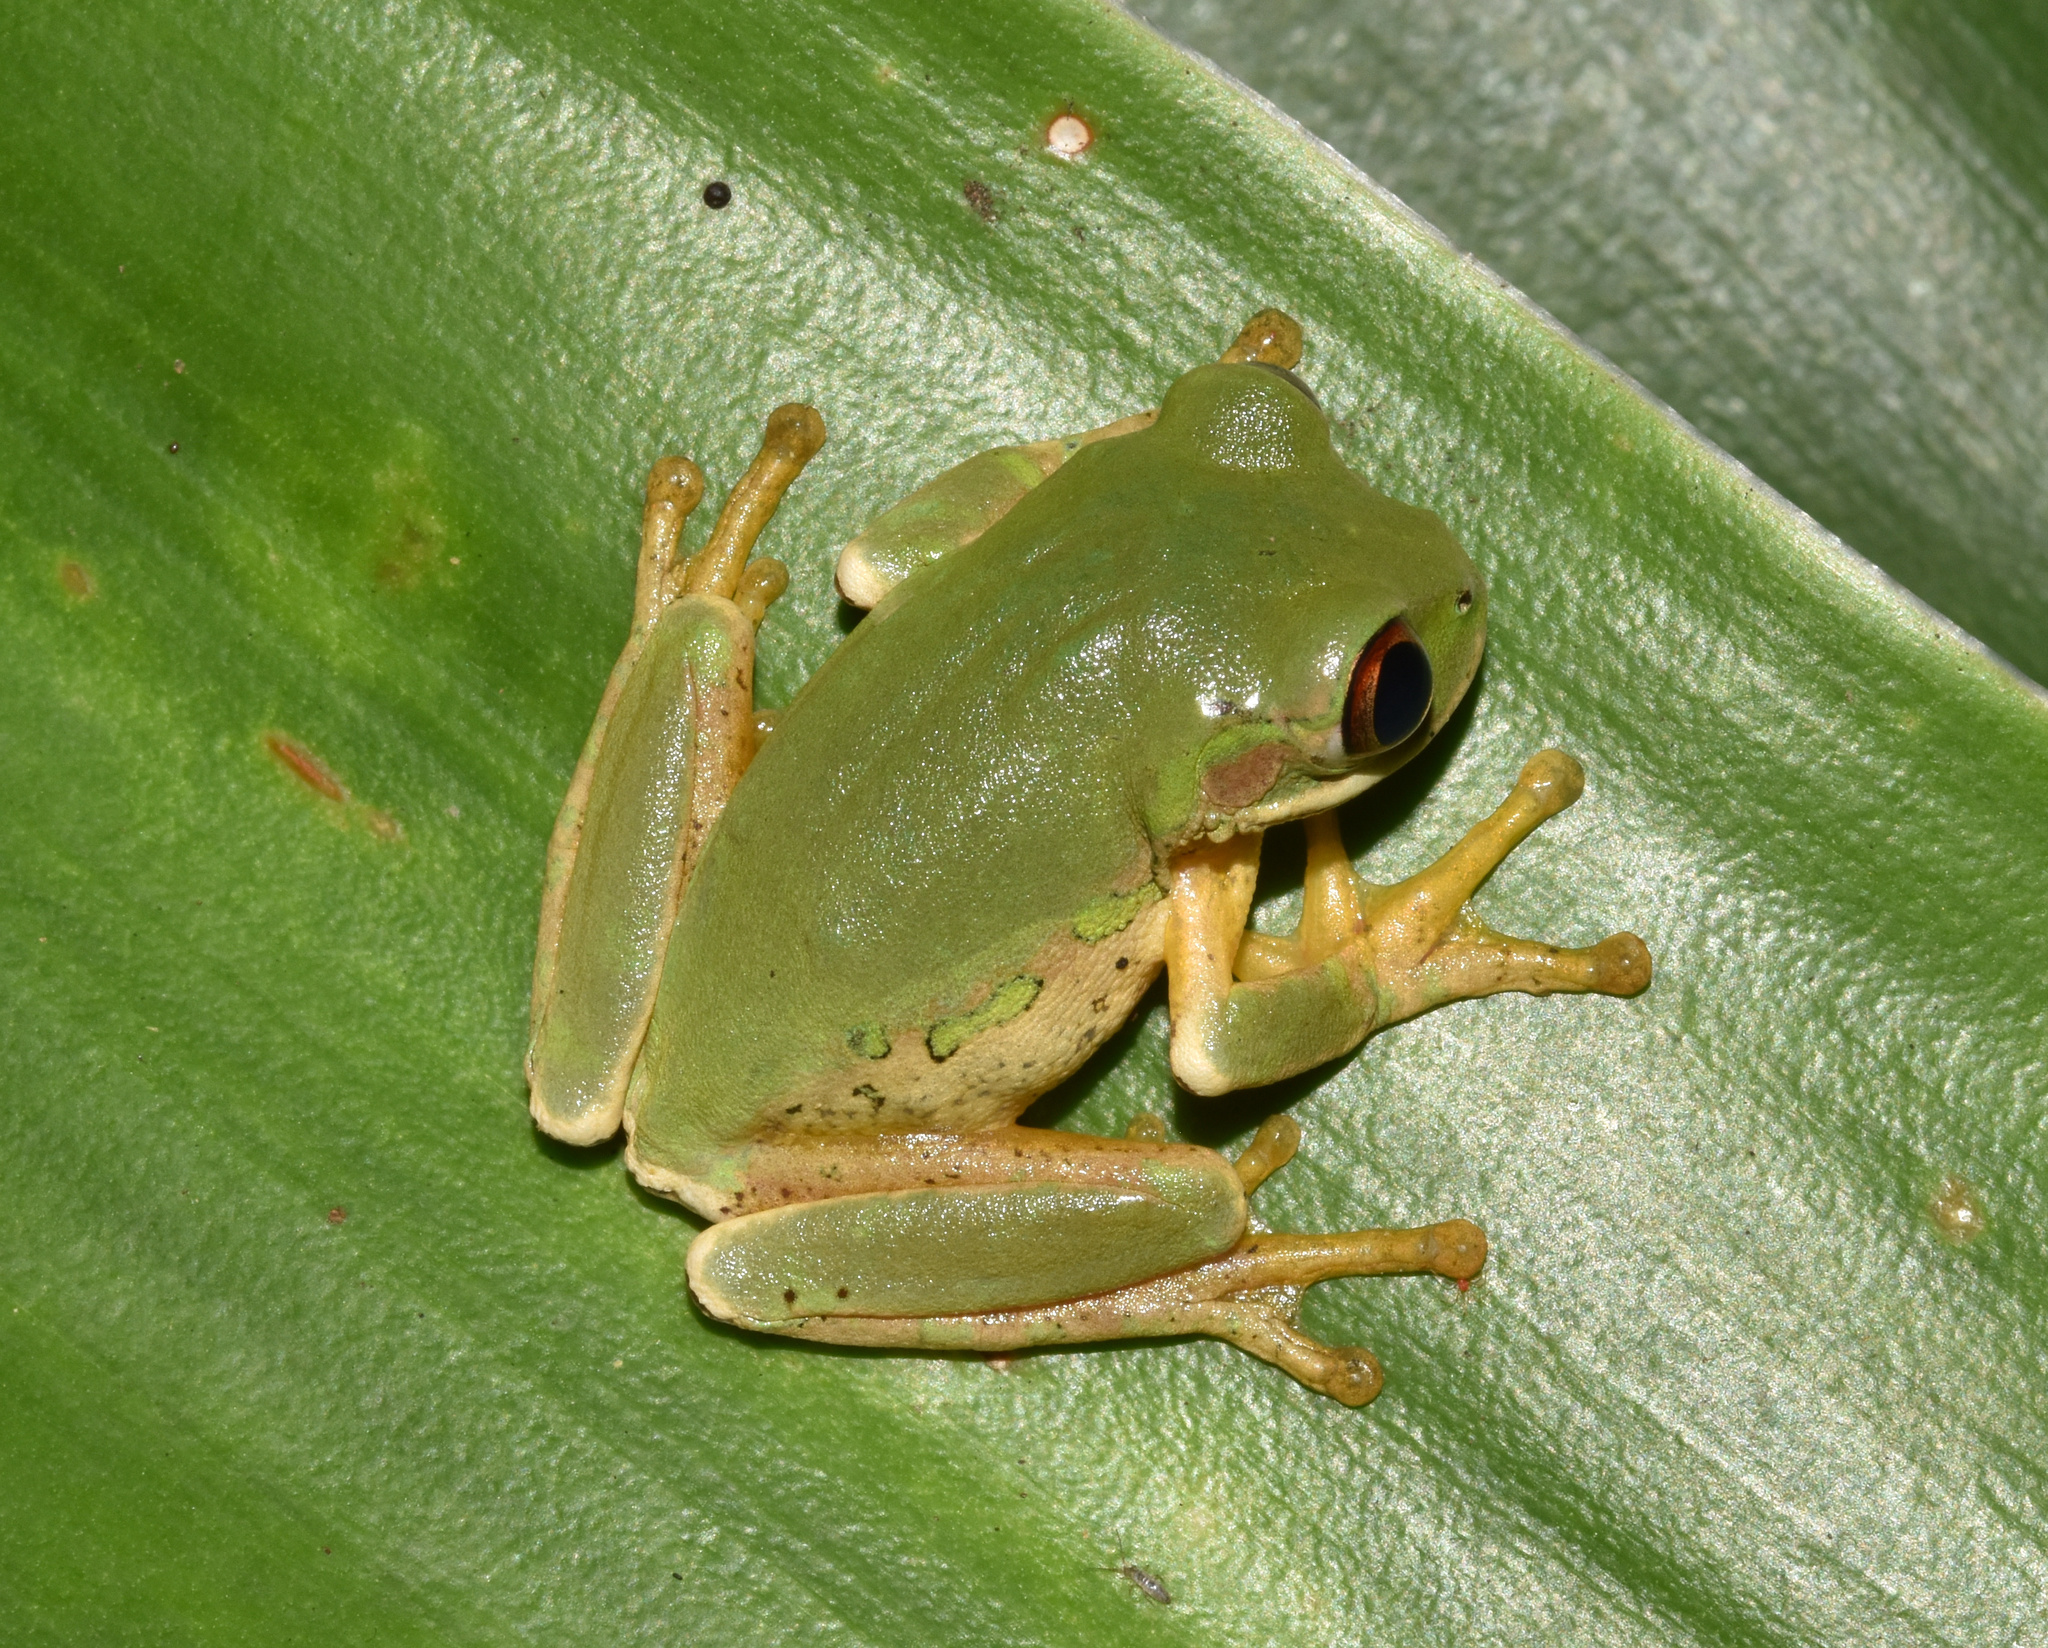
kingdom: Animalia
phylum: Chordata
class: Amphibia
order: Anura
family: Arthroleptidae
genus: Leptopelis
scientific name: Leptopelis natalensis
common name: Natal tree frog
